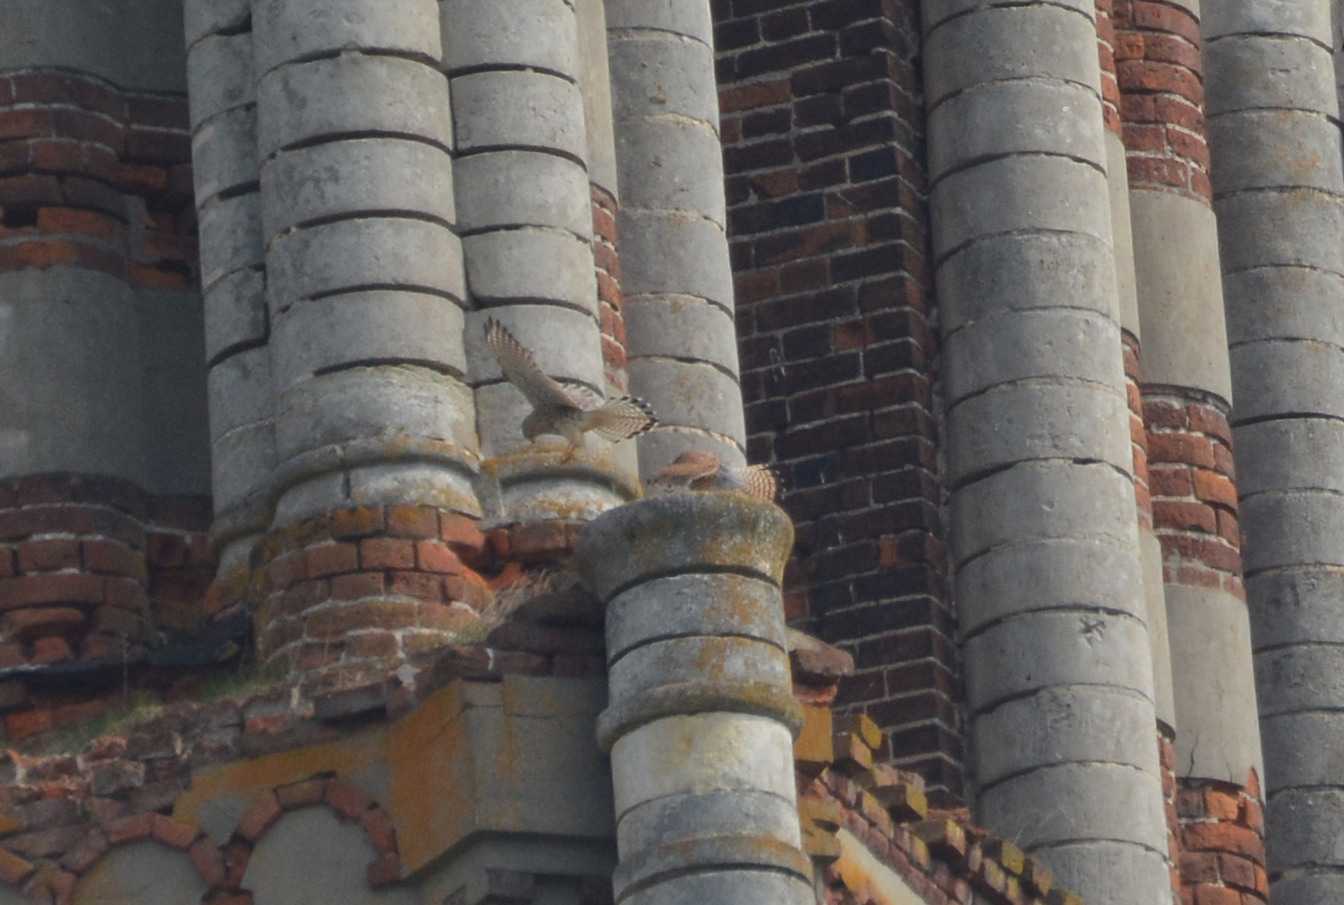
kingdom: Animalia
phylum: Chordata
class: Aves
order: Falconiformes
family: Falconidae
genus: Falco
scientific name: Falco tinnunculus
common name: Common kestrel
